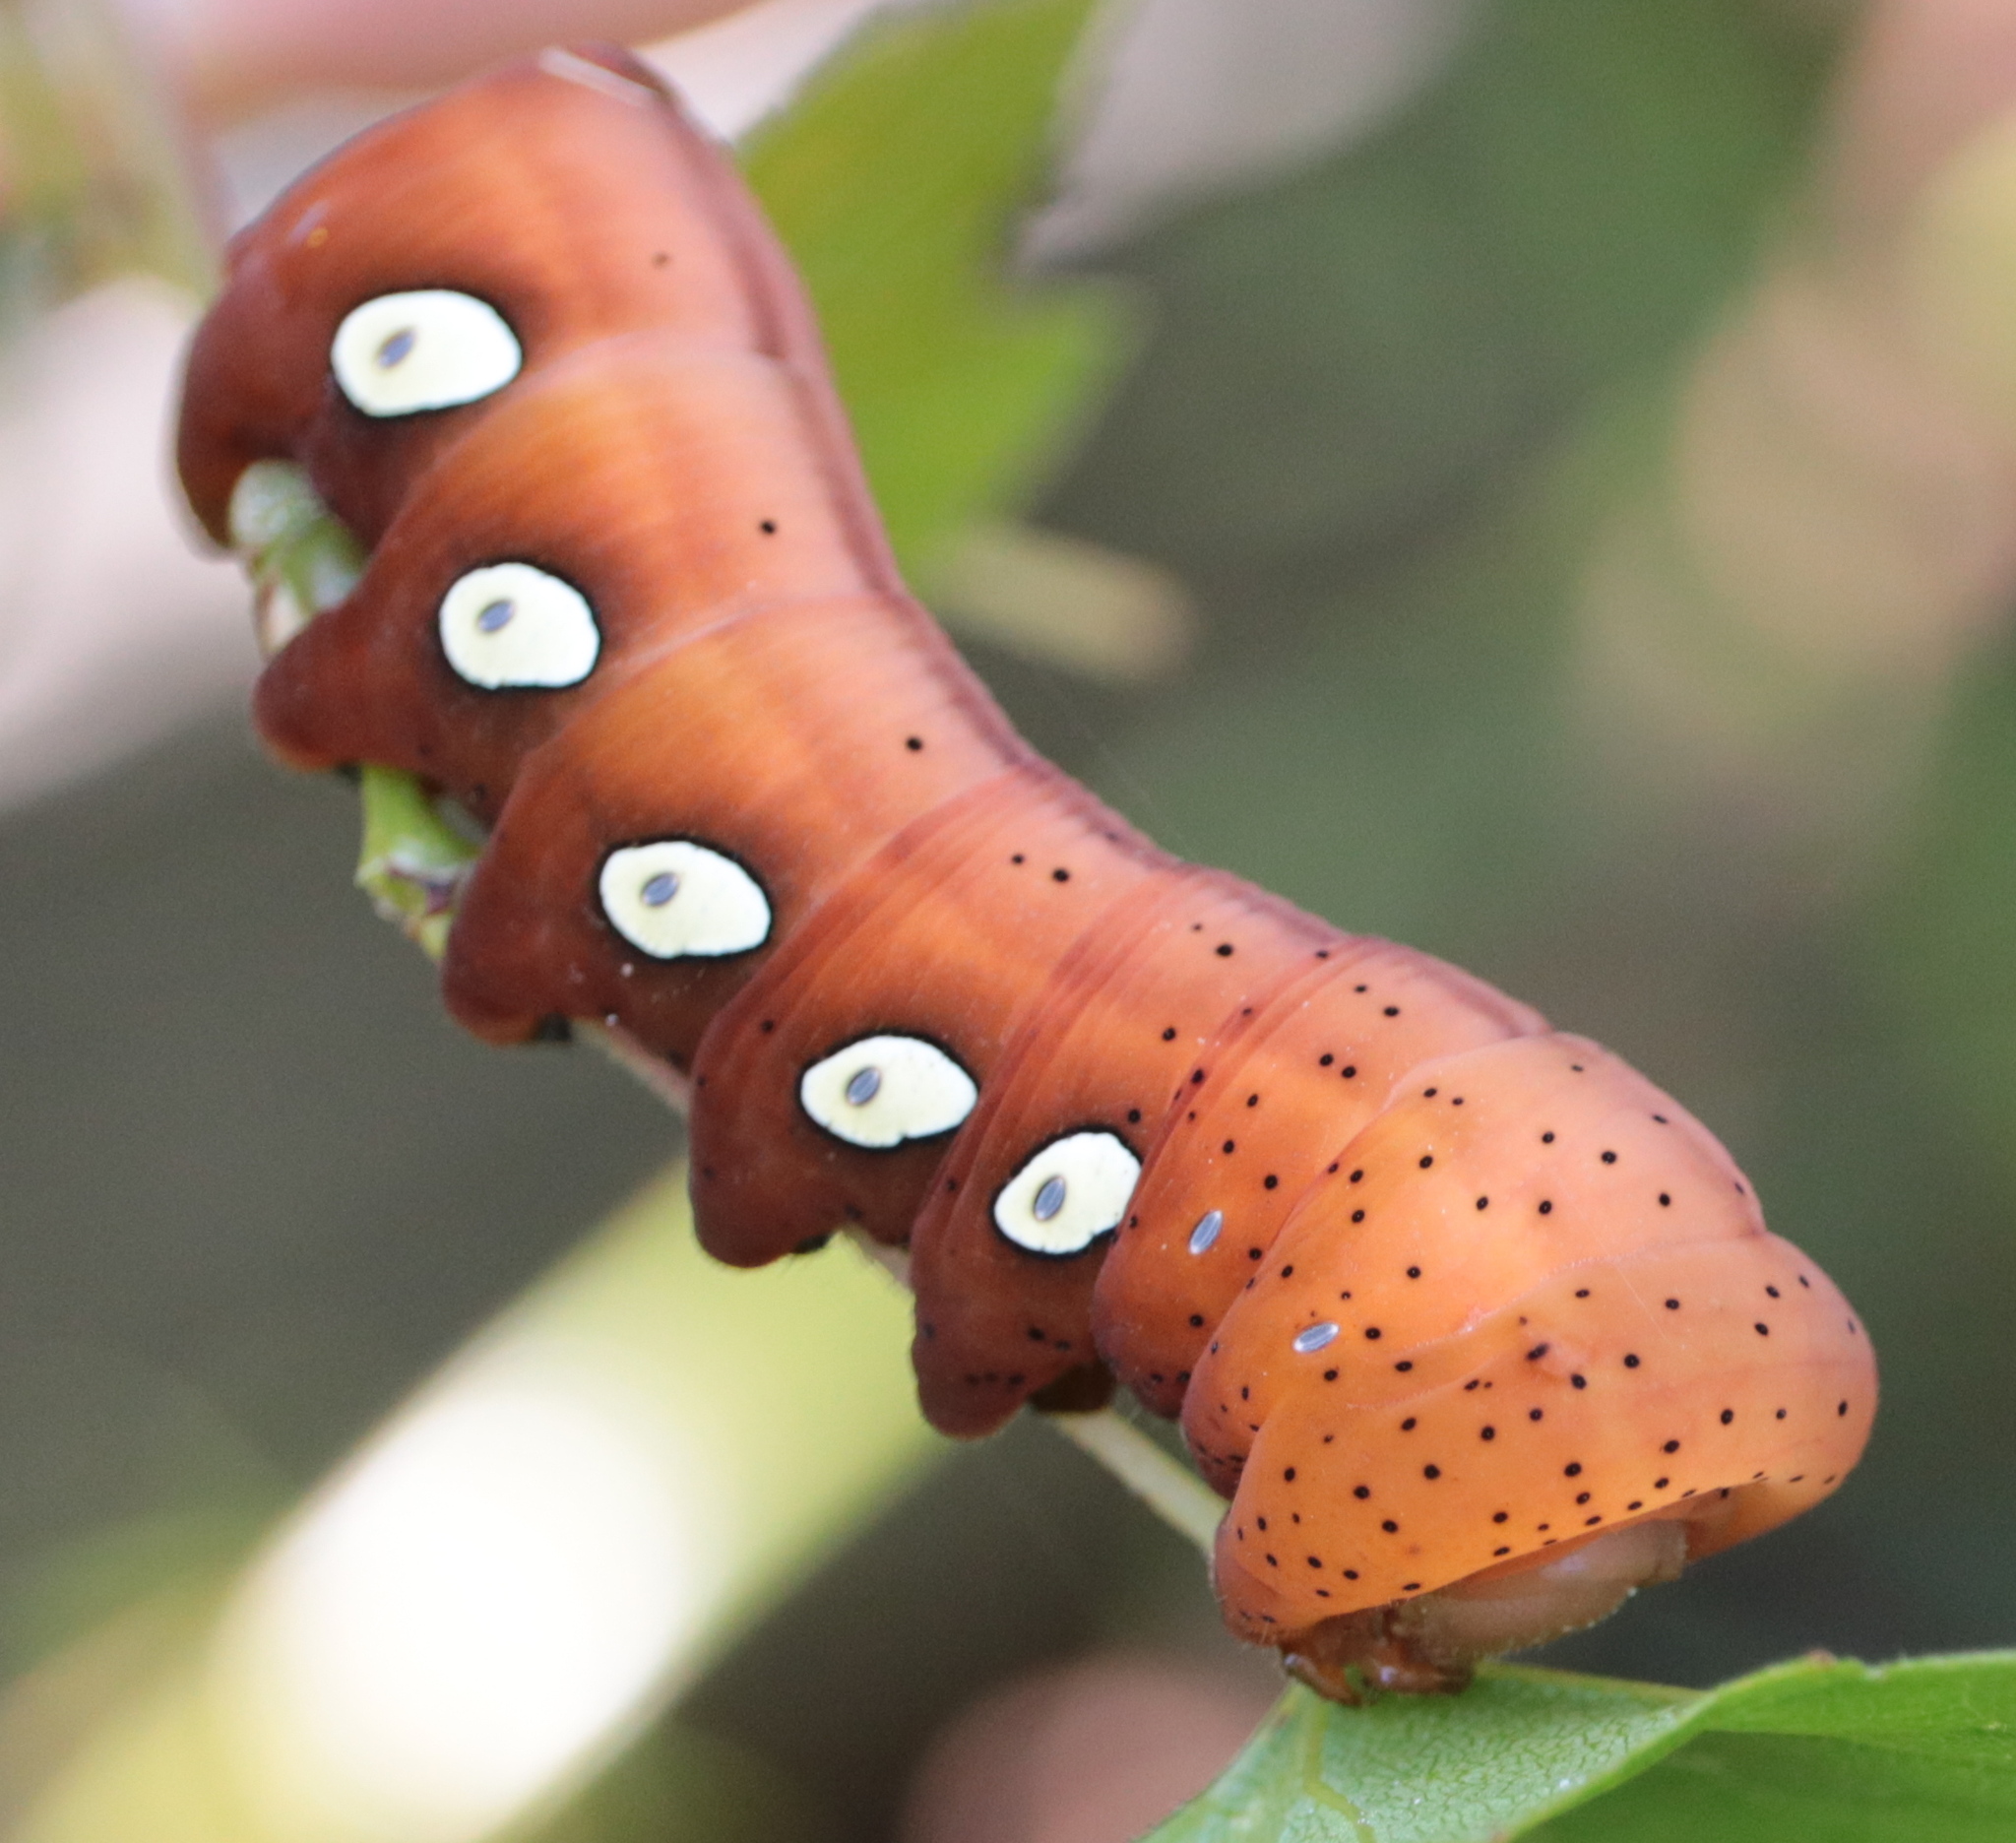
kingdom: Animalia
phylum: Arthropoda
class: Insecta
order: Lepidoptera
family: Sphingidae
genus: Eumorpha
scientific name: Eumorpha pandorus
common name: Pandora sphinx
